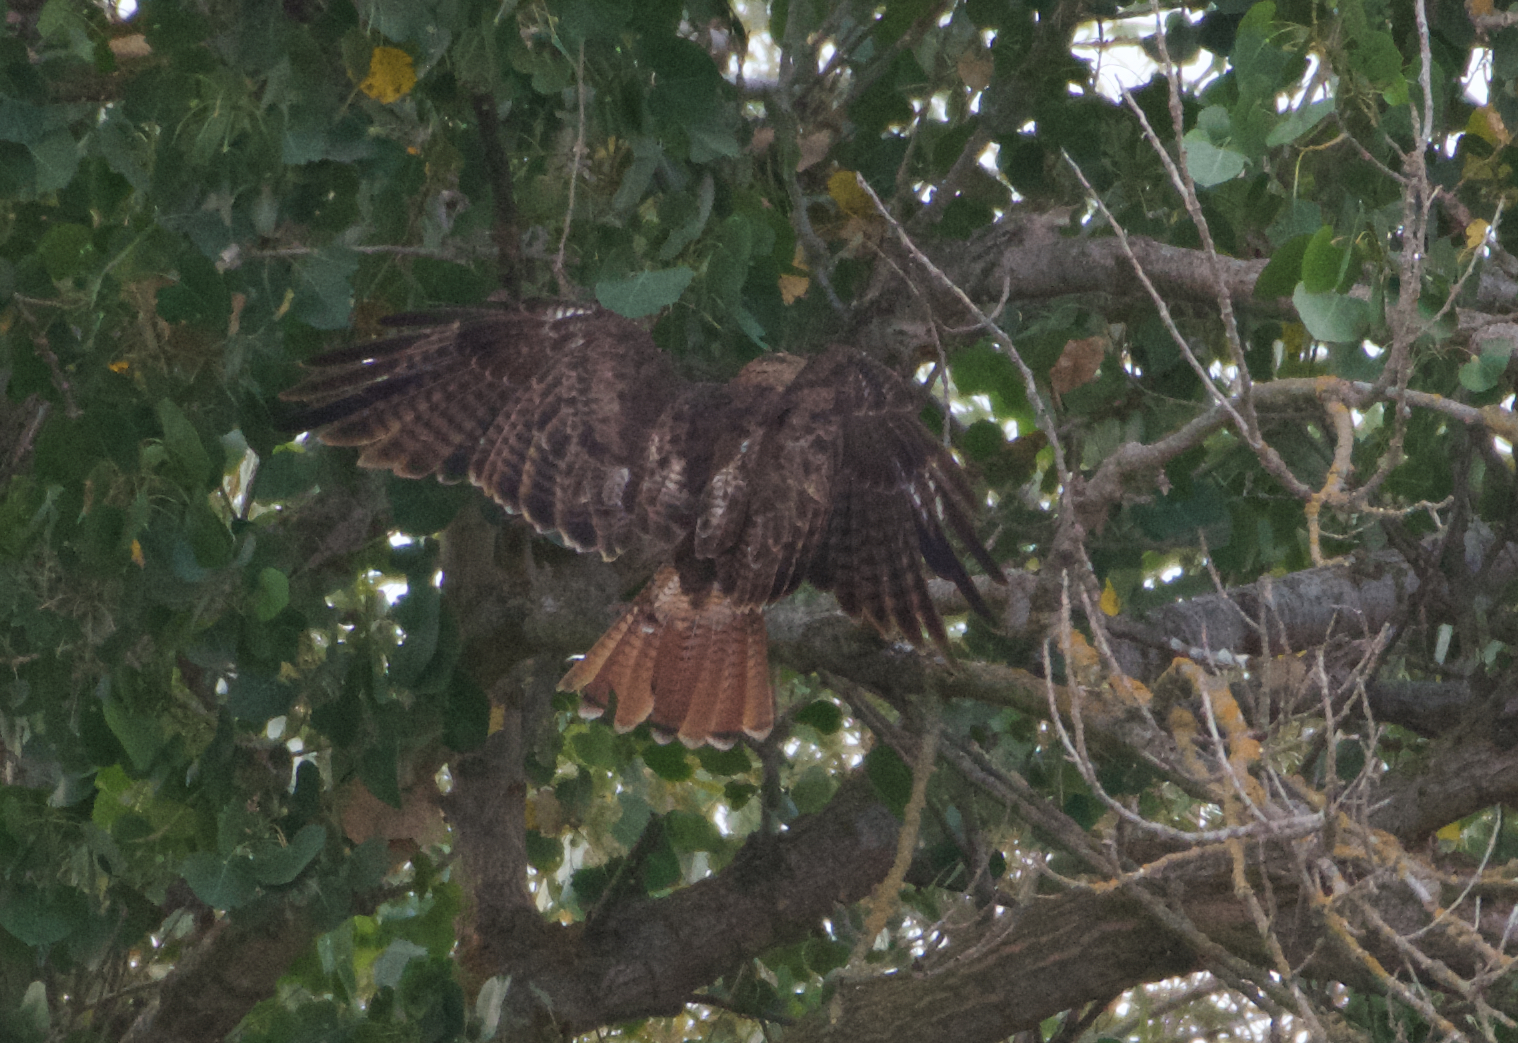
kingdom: Animalia
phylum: Chordata
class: Aves
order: Accipitriformes
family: Accipitridae
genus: Buteo
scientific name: Buteo jamaicensis
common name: Red-tailed hawk
